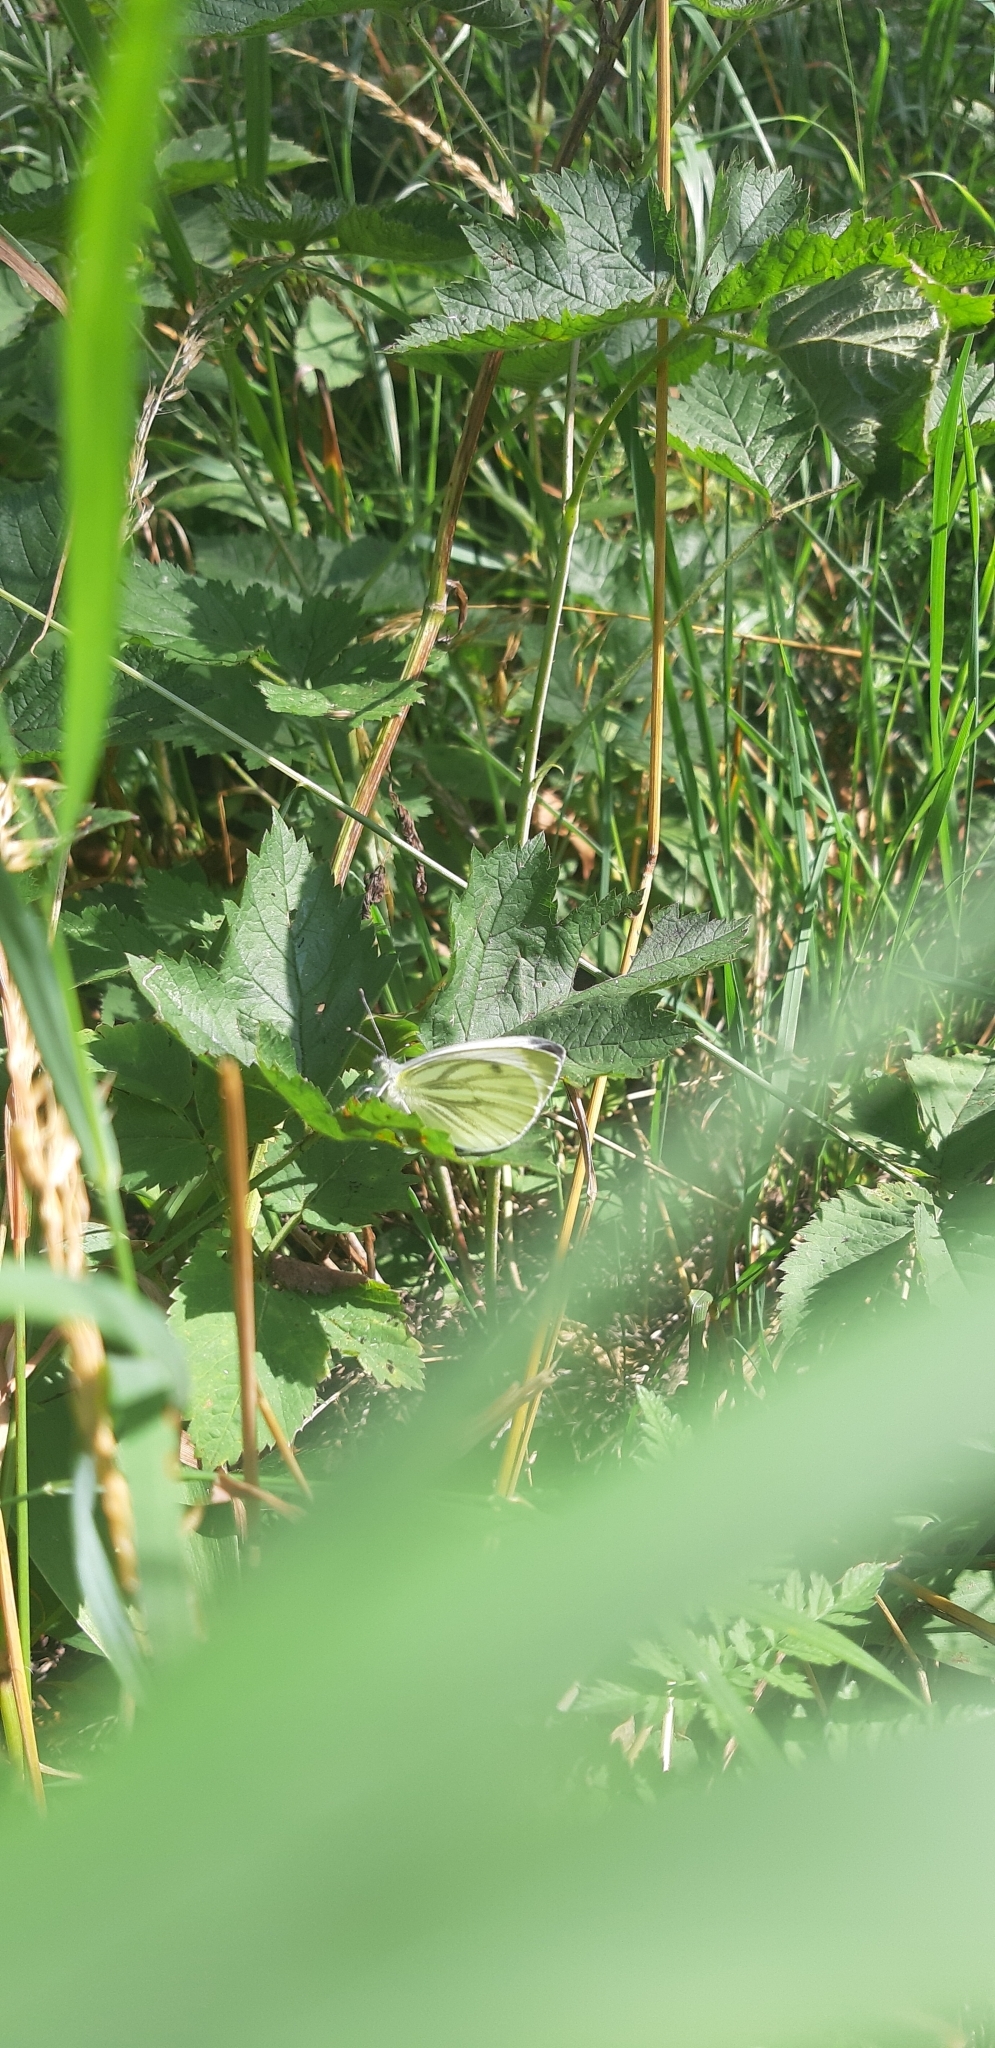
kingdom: Animalia
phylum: Arthropoda
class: Insecta
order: Lepidoptera
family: Pieridae
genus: Pieris
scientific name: Pieris napi
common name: Green-veined white
